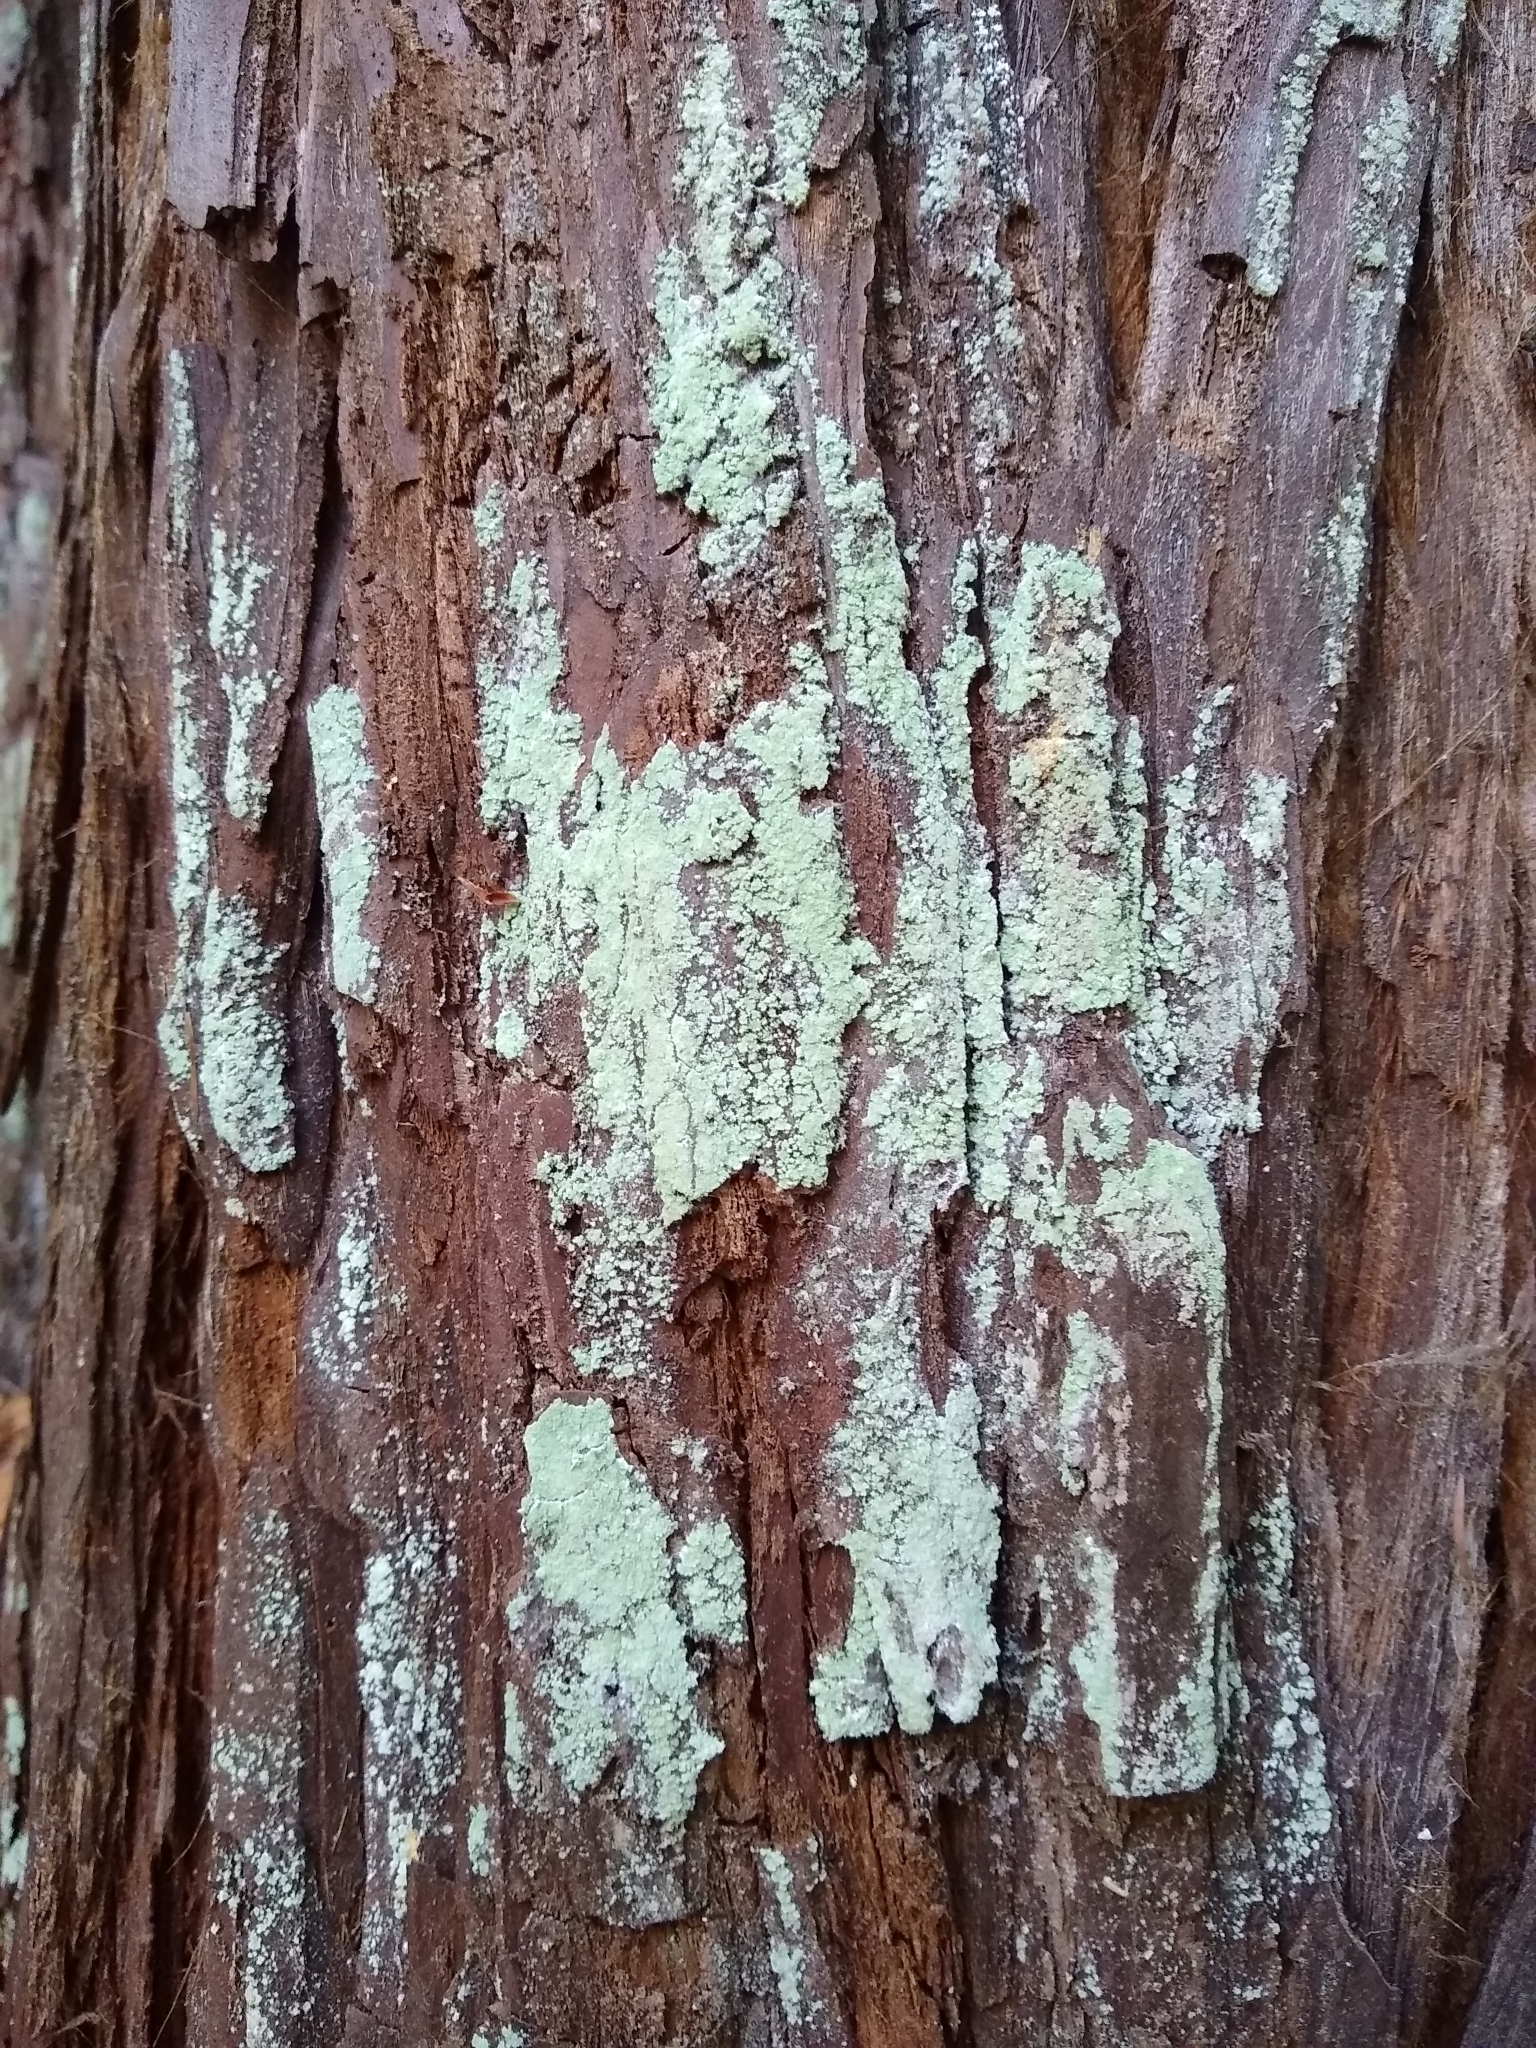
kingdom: Fungi
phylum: Ascomycota
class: Lecanoromycetes
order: Lecanorales
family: Stereocaulaceae
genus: Lepraria
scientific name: Lepraria pacifica
